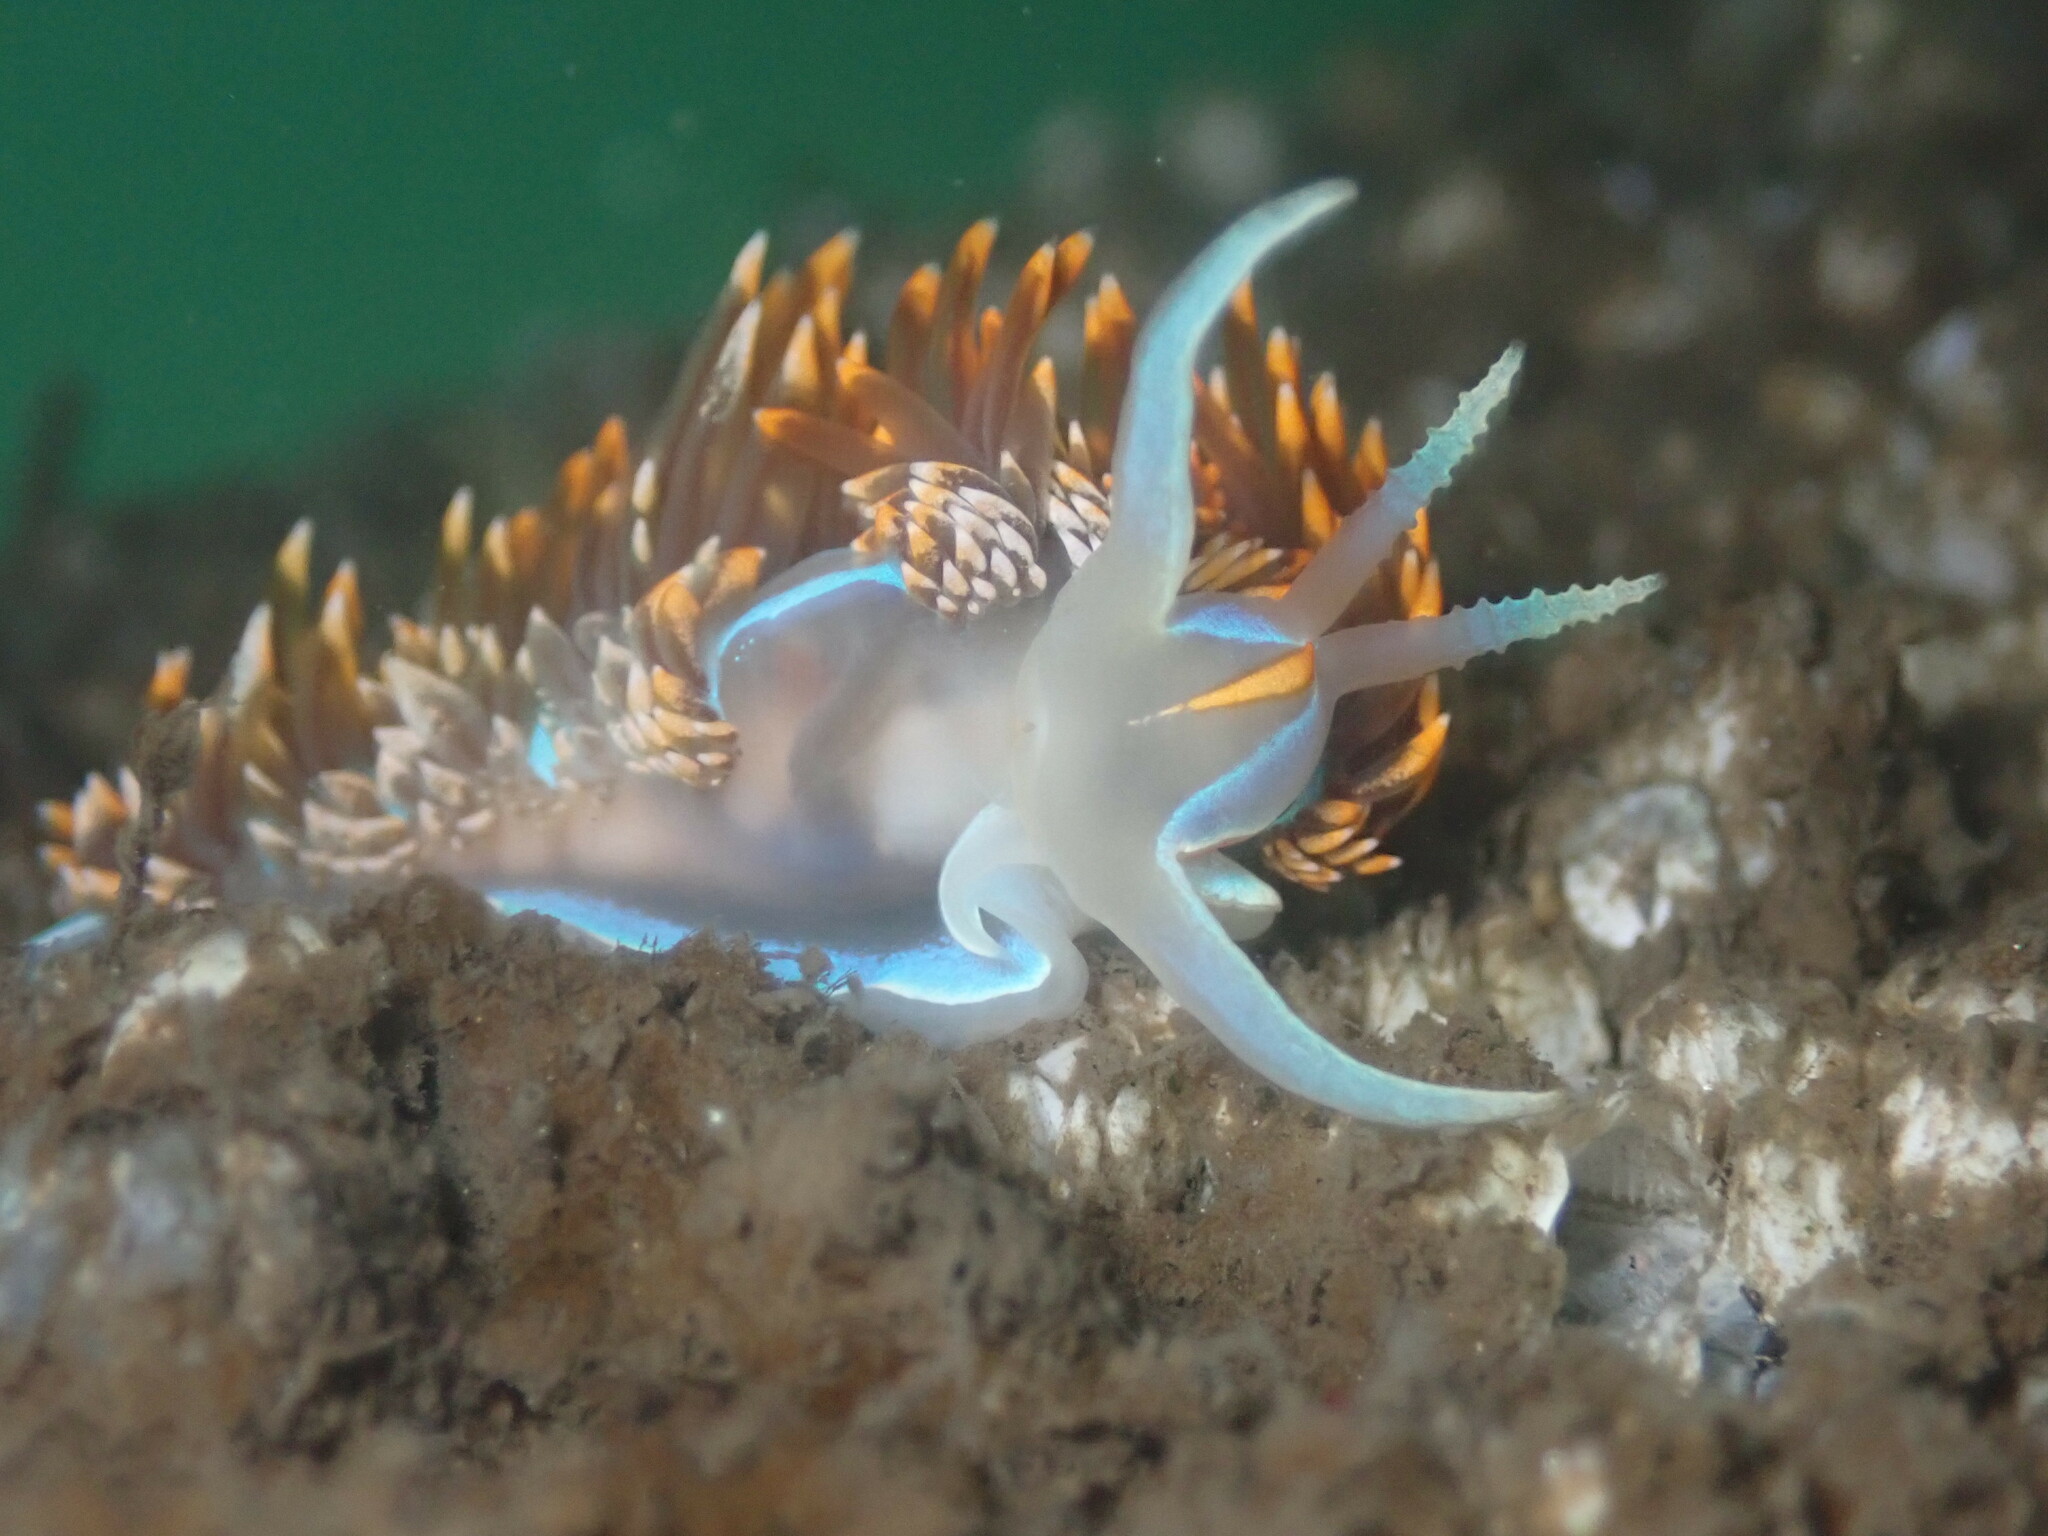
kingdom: Animalia
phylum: Mollusca
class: Gastropoda
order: Nudibranchia
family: Myrrhinidae
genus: Hermissenda
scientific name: Hermissenda opalescens
